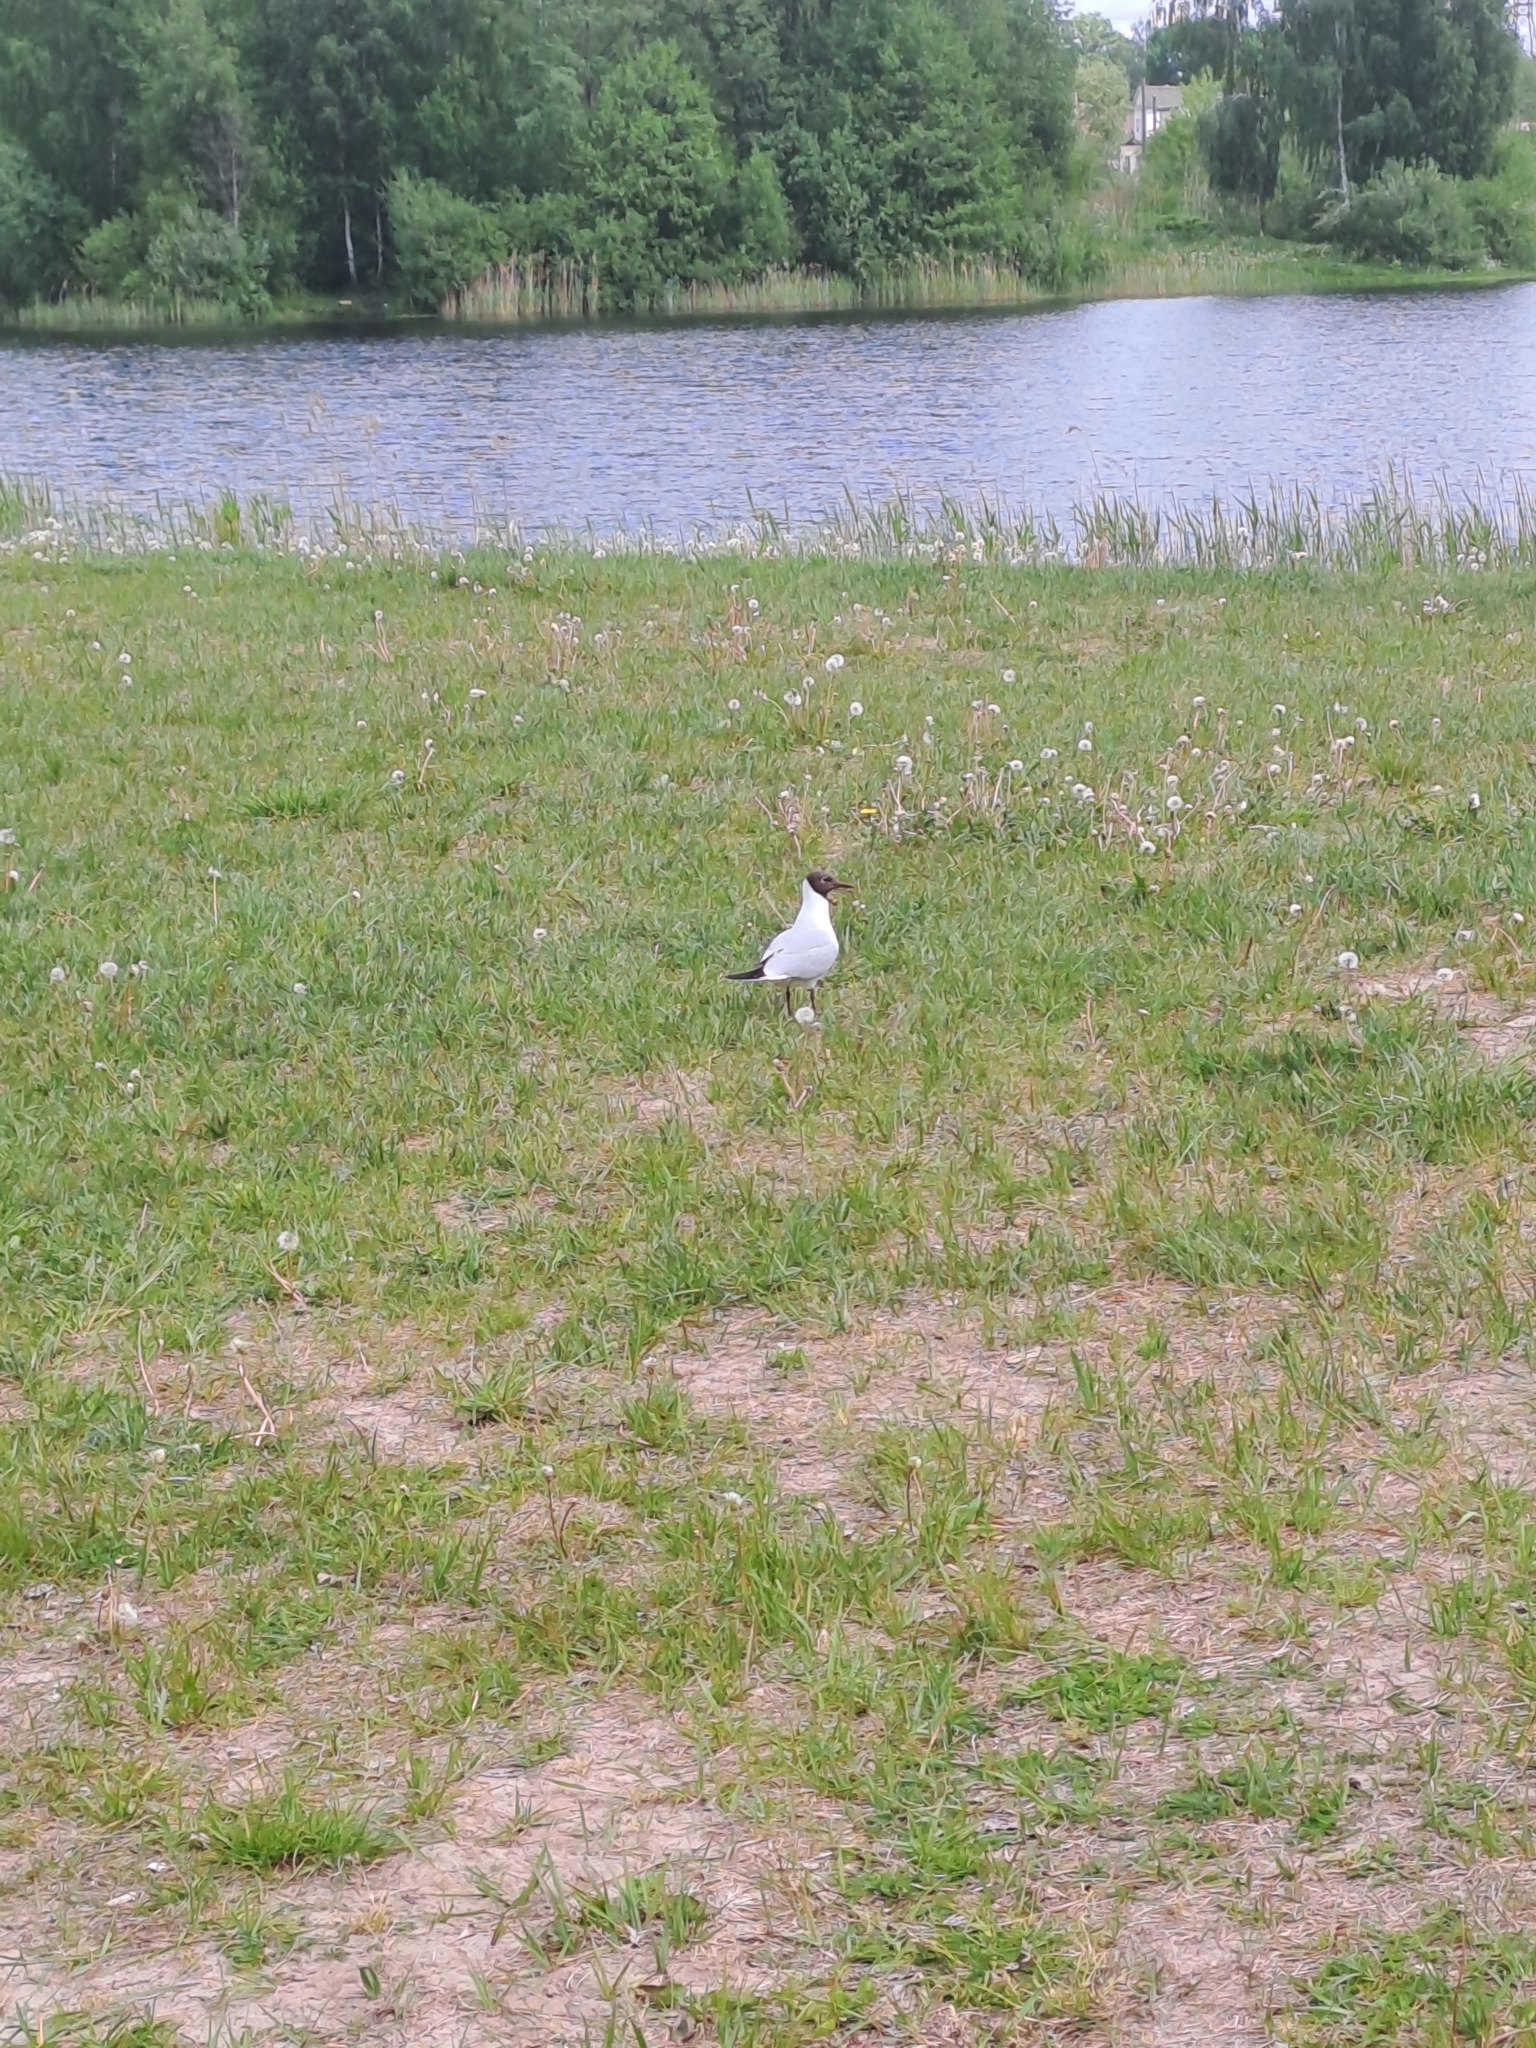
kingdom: Animalia
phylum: Chordata
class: Aves
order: Charadriiformes
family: Laridae
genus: Chroicocephalus
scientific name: Chroicocephalus ridibundus
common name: Black-headed gull
